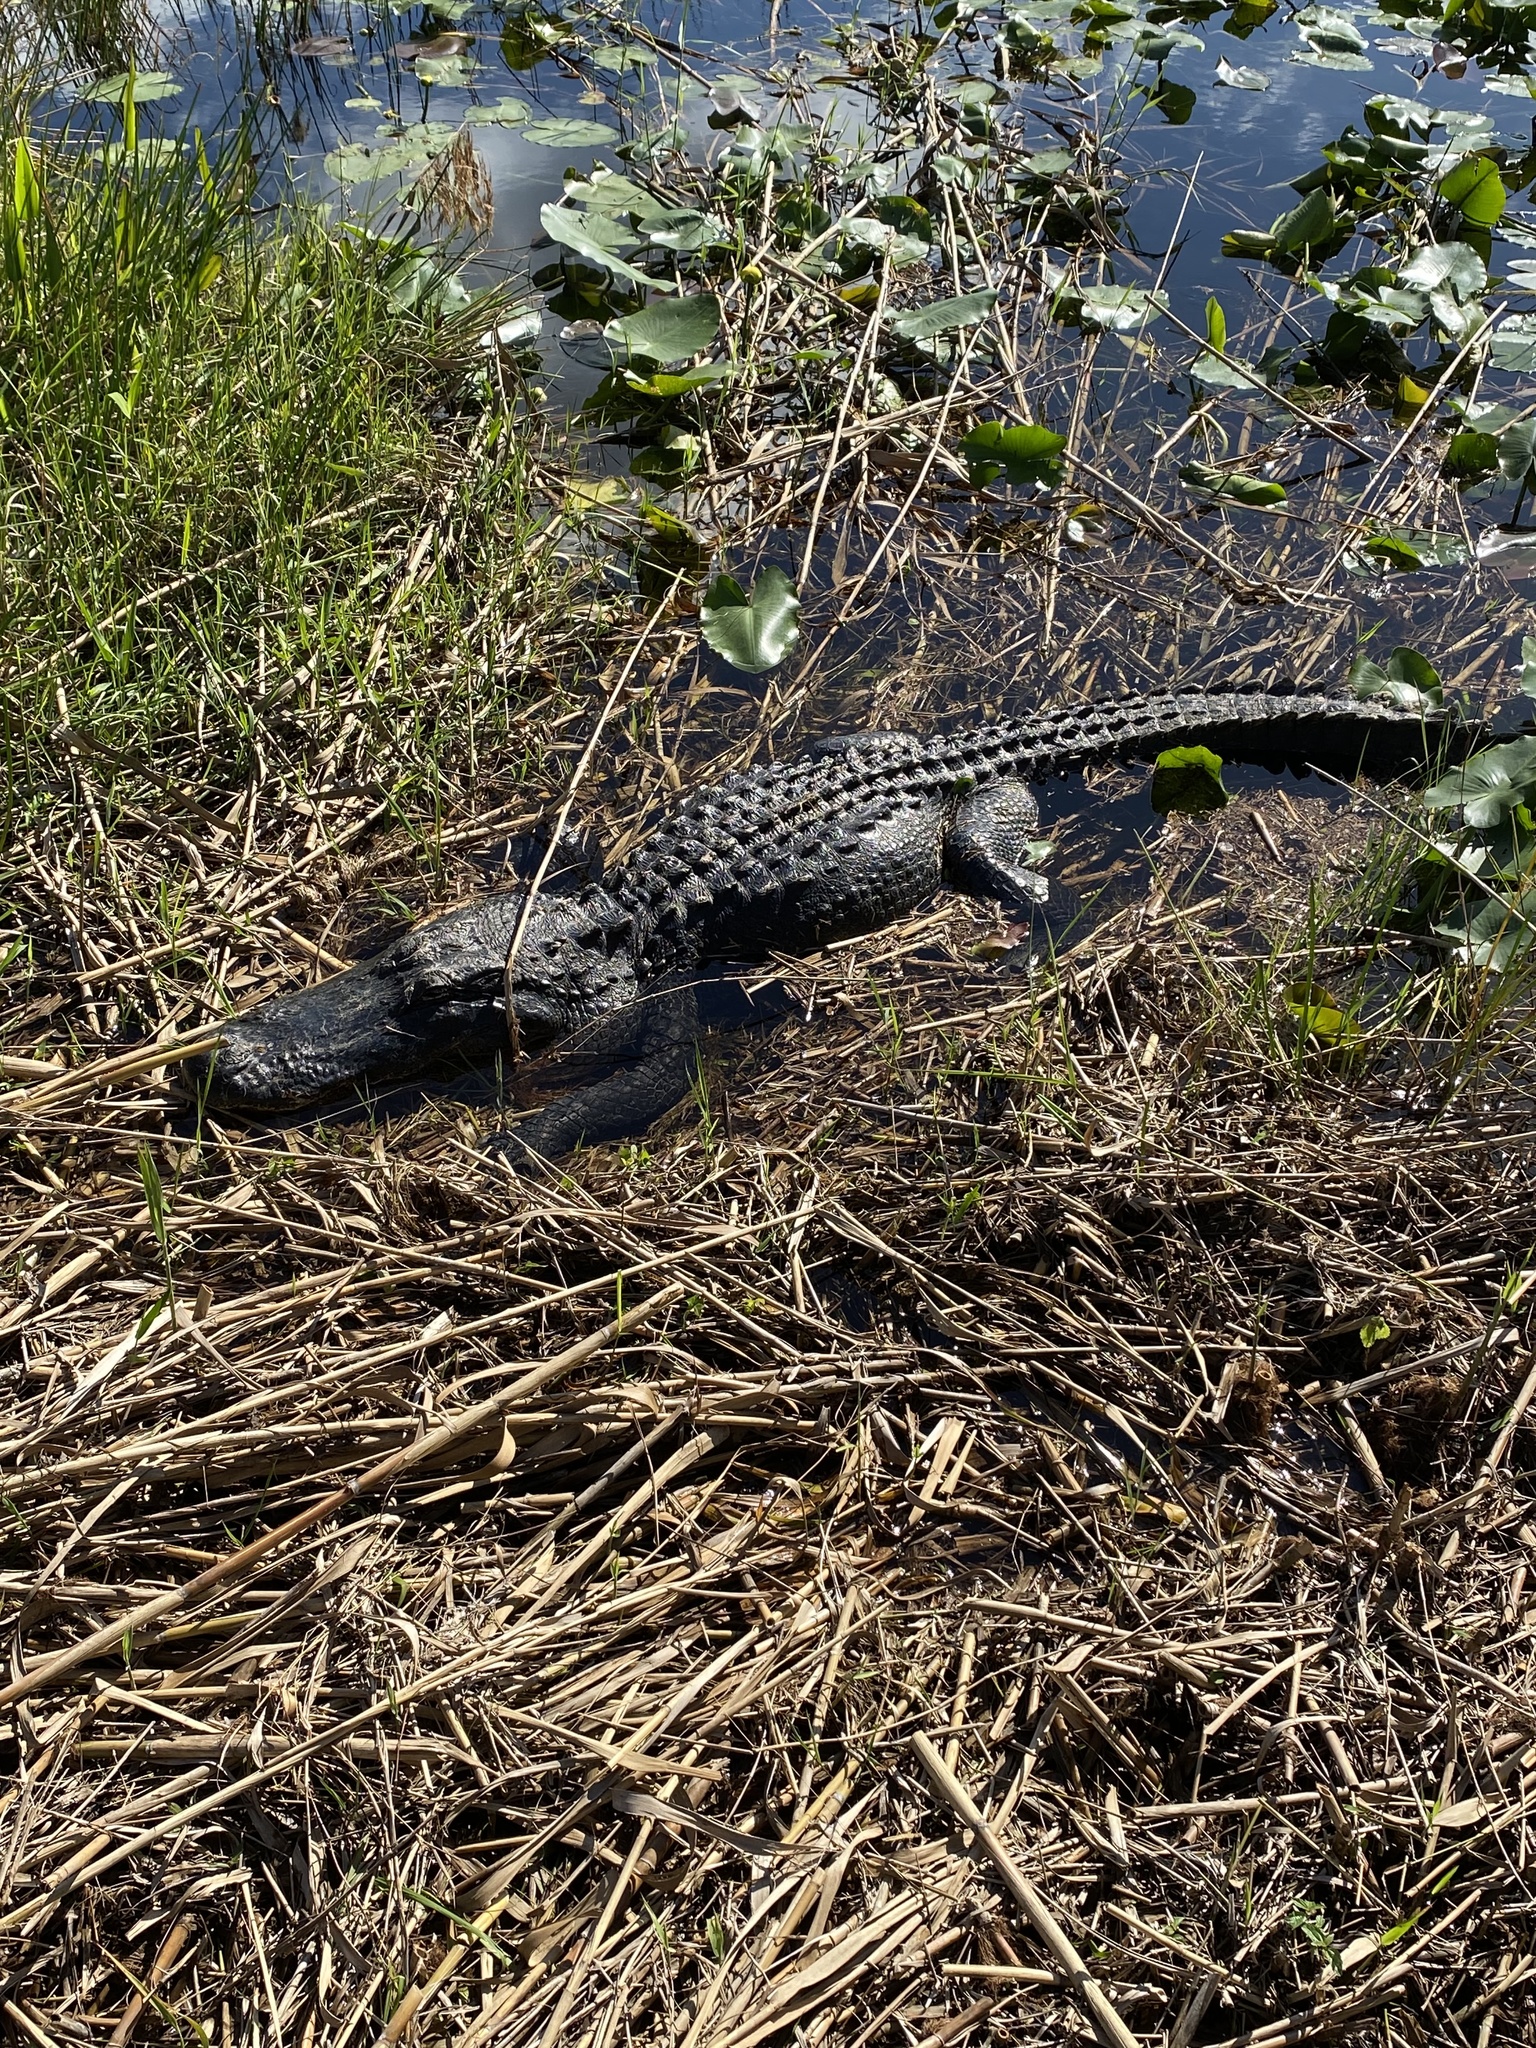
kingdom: Animalia
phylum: Chordata
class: Crocodylia
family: Alligatoridae
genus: Alligator
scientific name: Alligator mississippiensis
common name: American alligator
